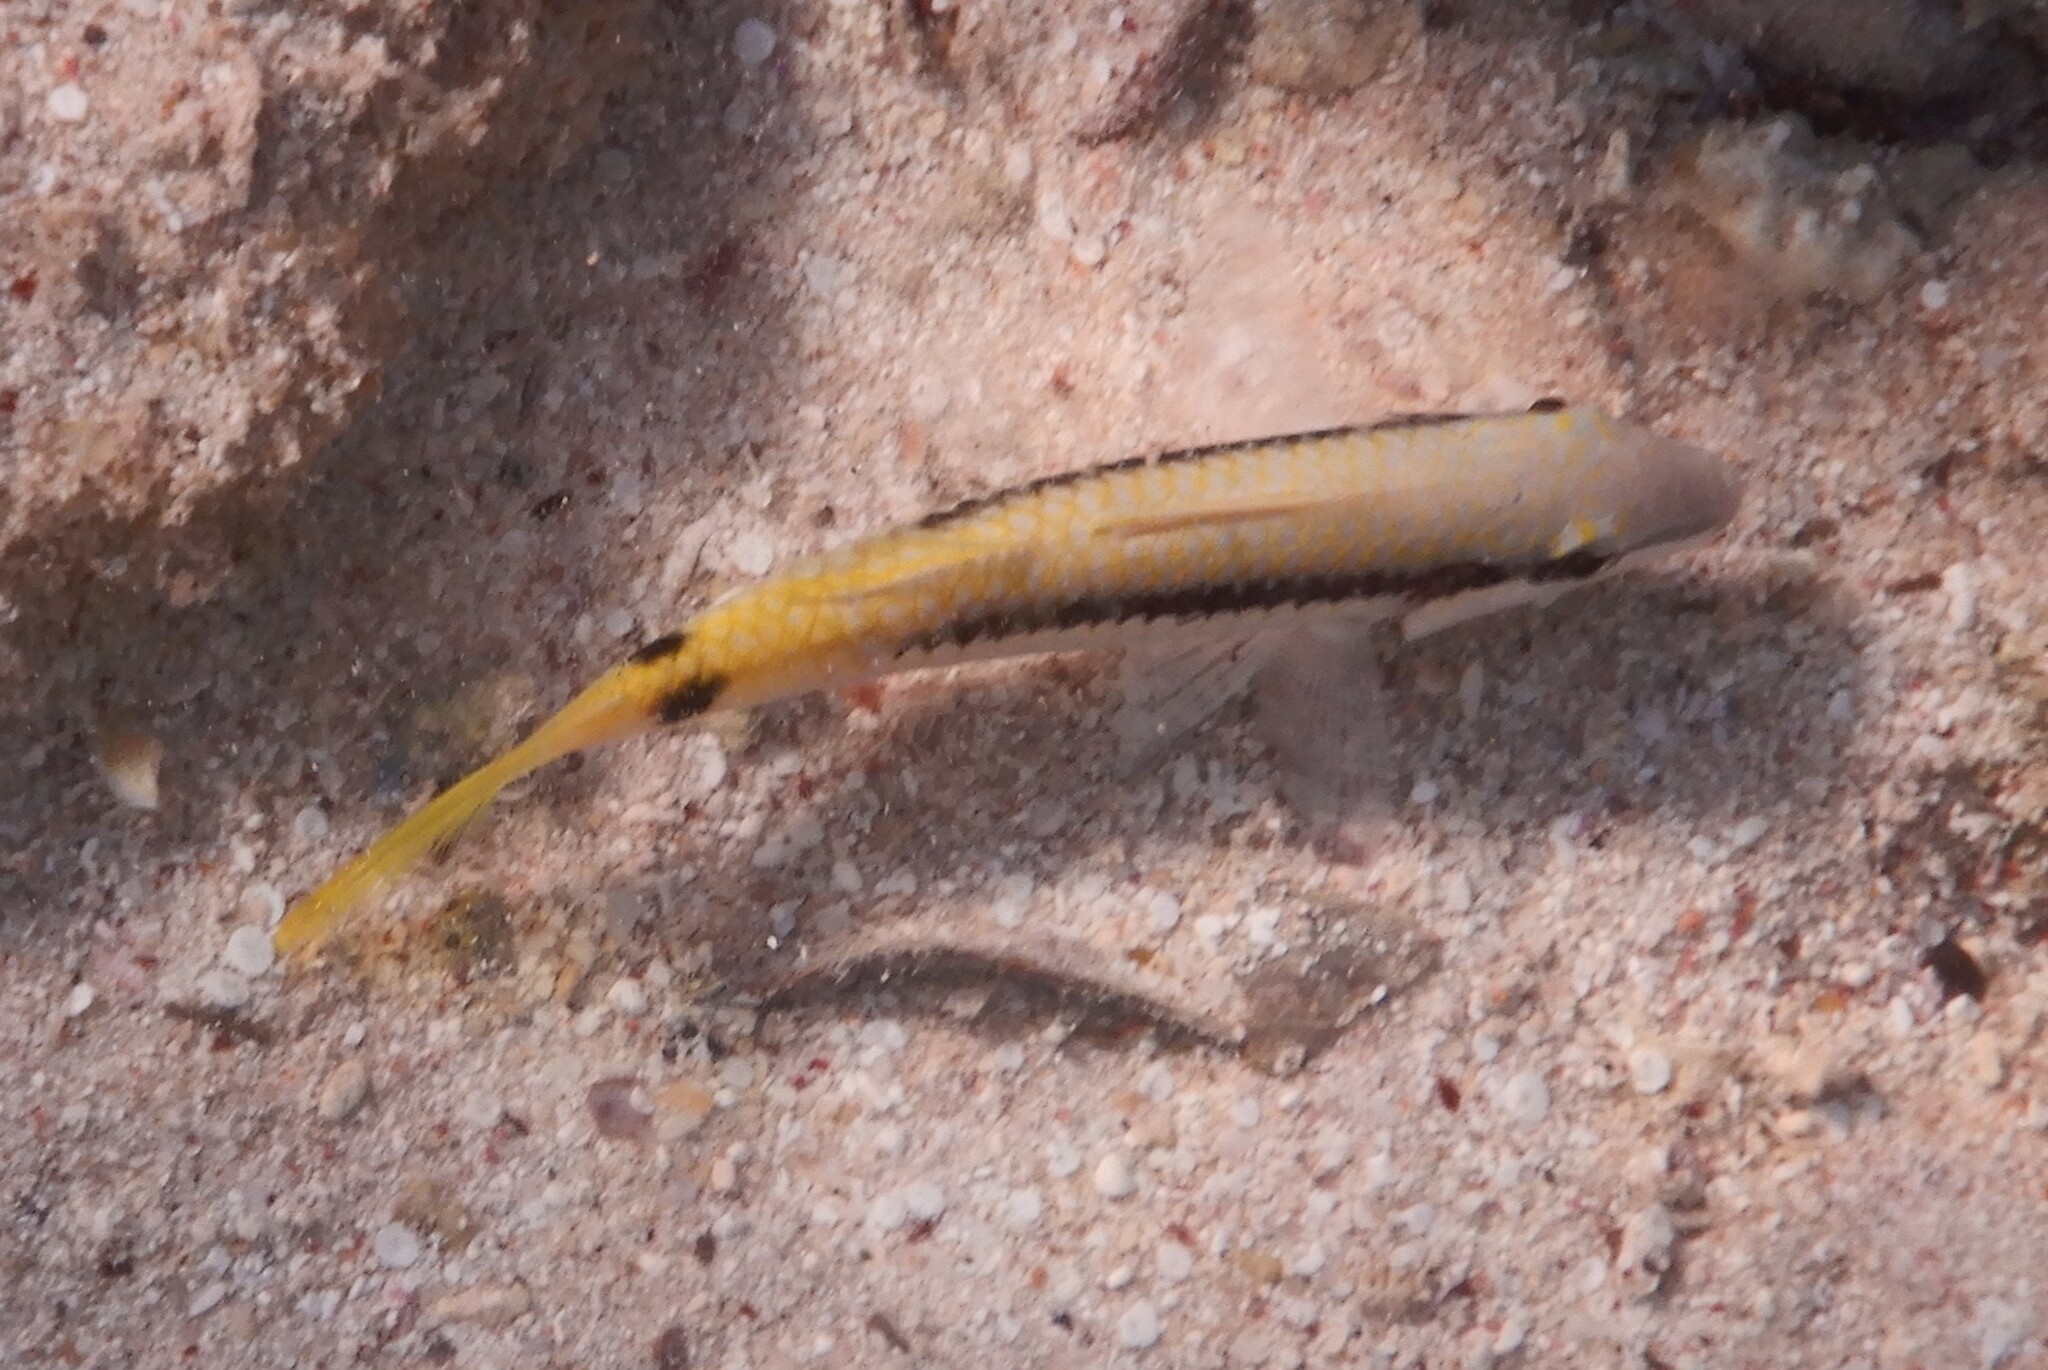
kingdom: Animalia
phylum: Chordata
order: Perciformes
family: Mullidae
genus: Parupeneus
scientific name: Parupeneus forsskali
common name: Red sea goatfish
